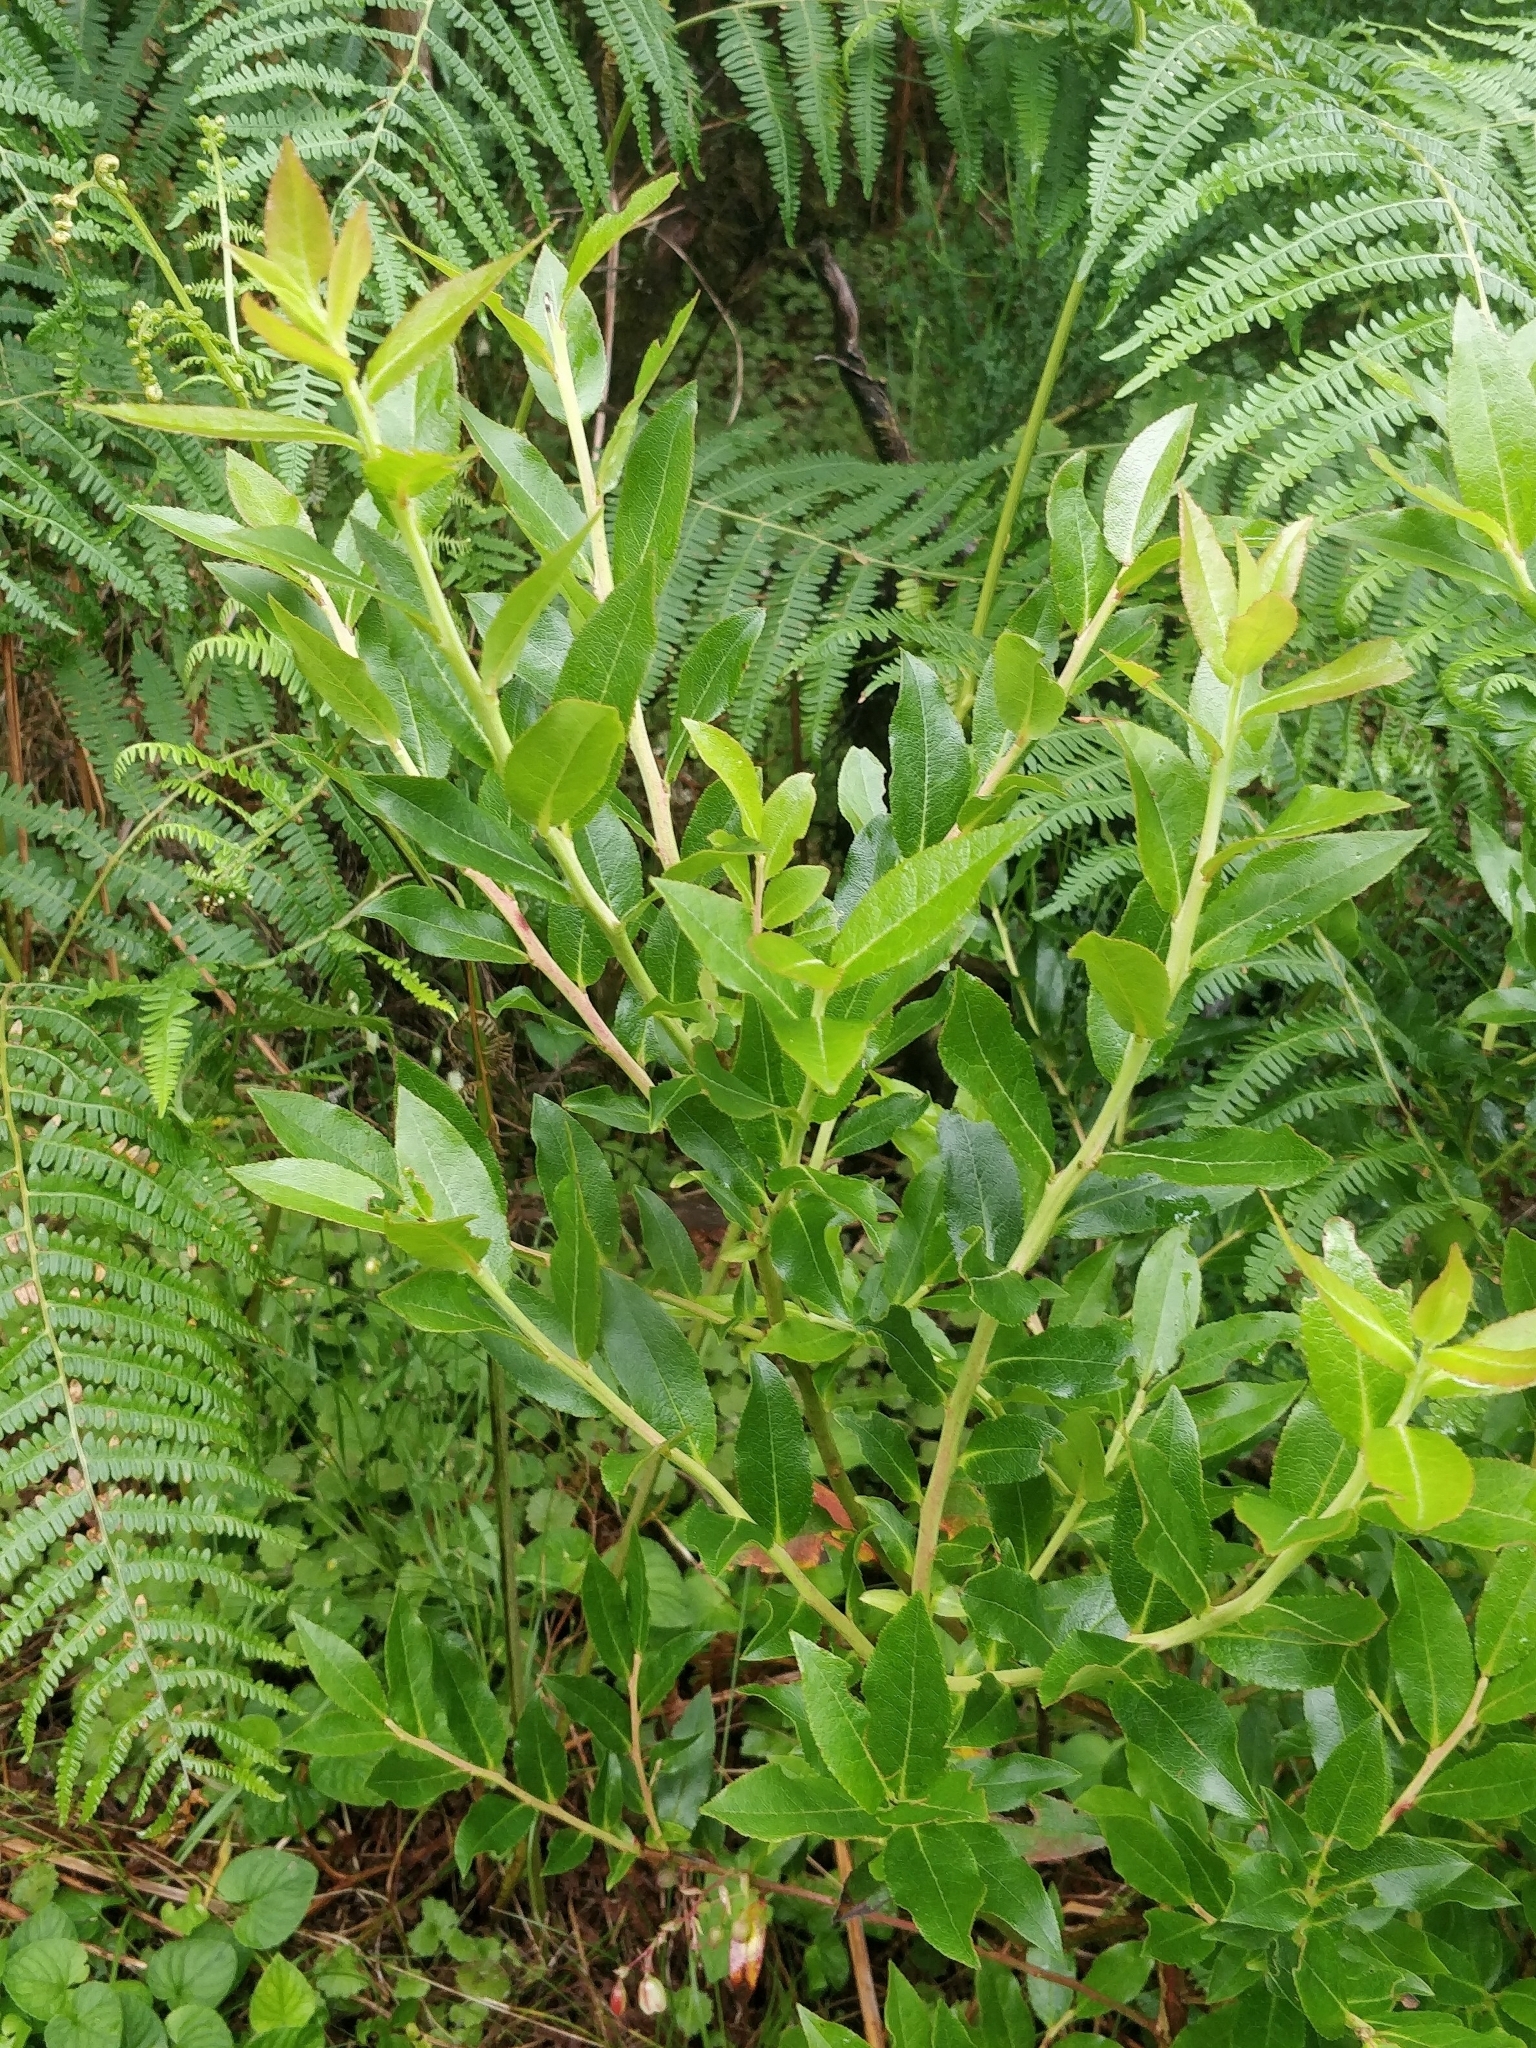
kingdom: Plantae
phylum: Tracheophyta
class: Magnoliopsida
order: Ericales
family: Ericaceae
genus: Vaccinium
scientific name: Vaccinium padifolium
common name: Madeiran blueberry
